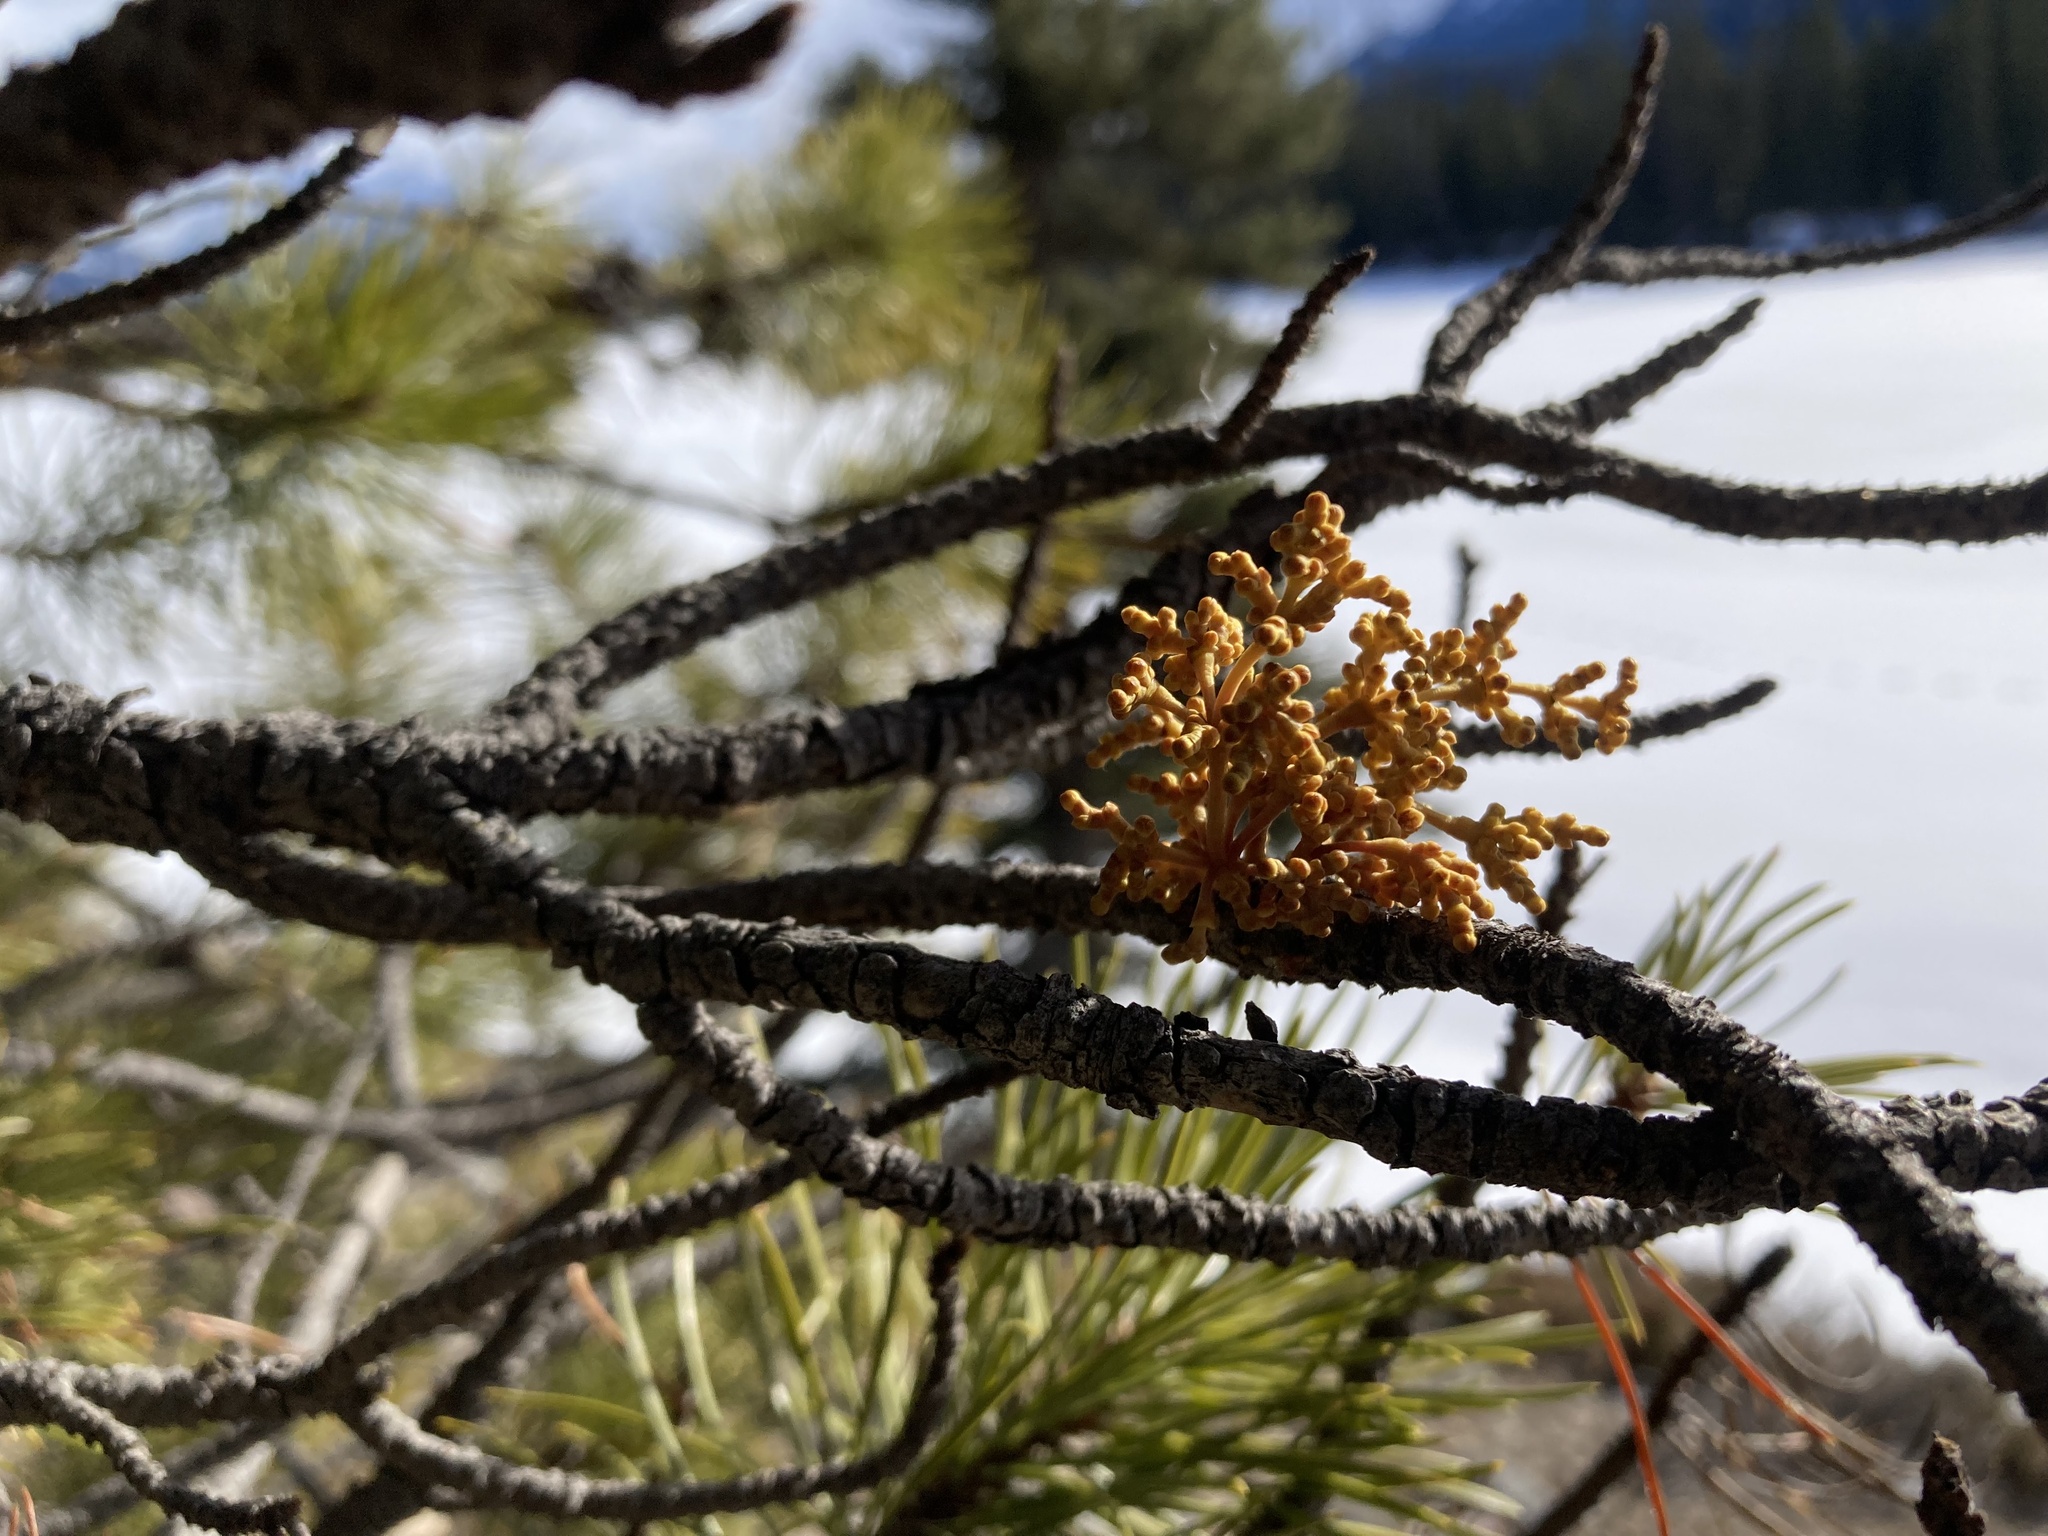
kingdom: Plantae
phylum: Tracheophyta
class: Magnoliopsida
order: Santalales
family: Viscaceae
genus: Arceuthobium
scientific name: Arceuthobium americanum
